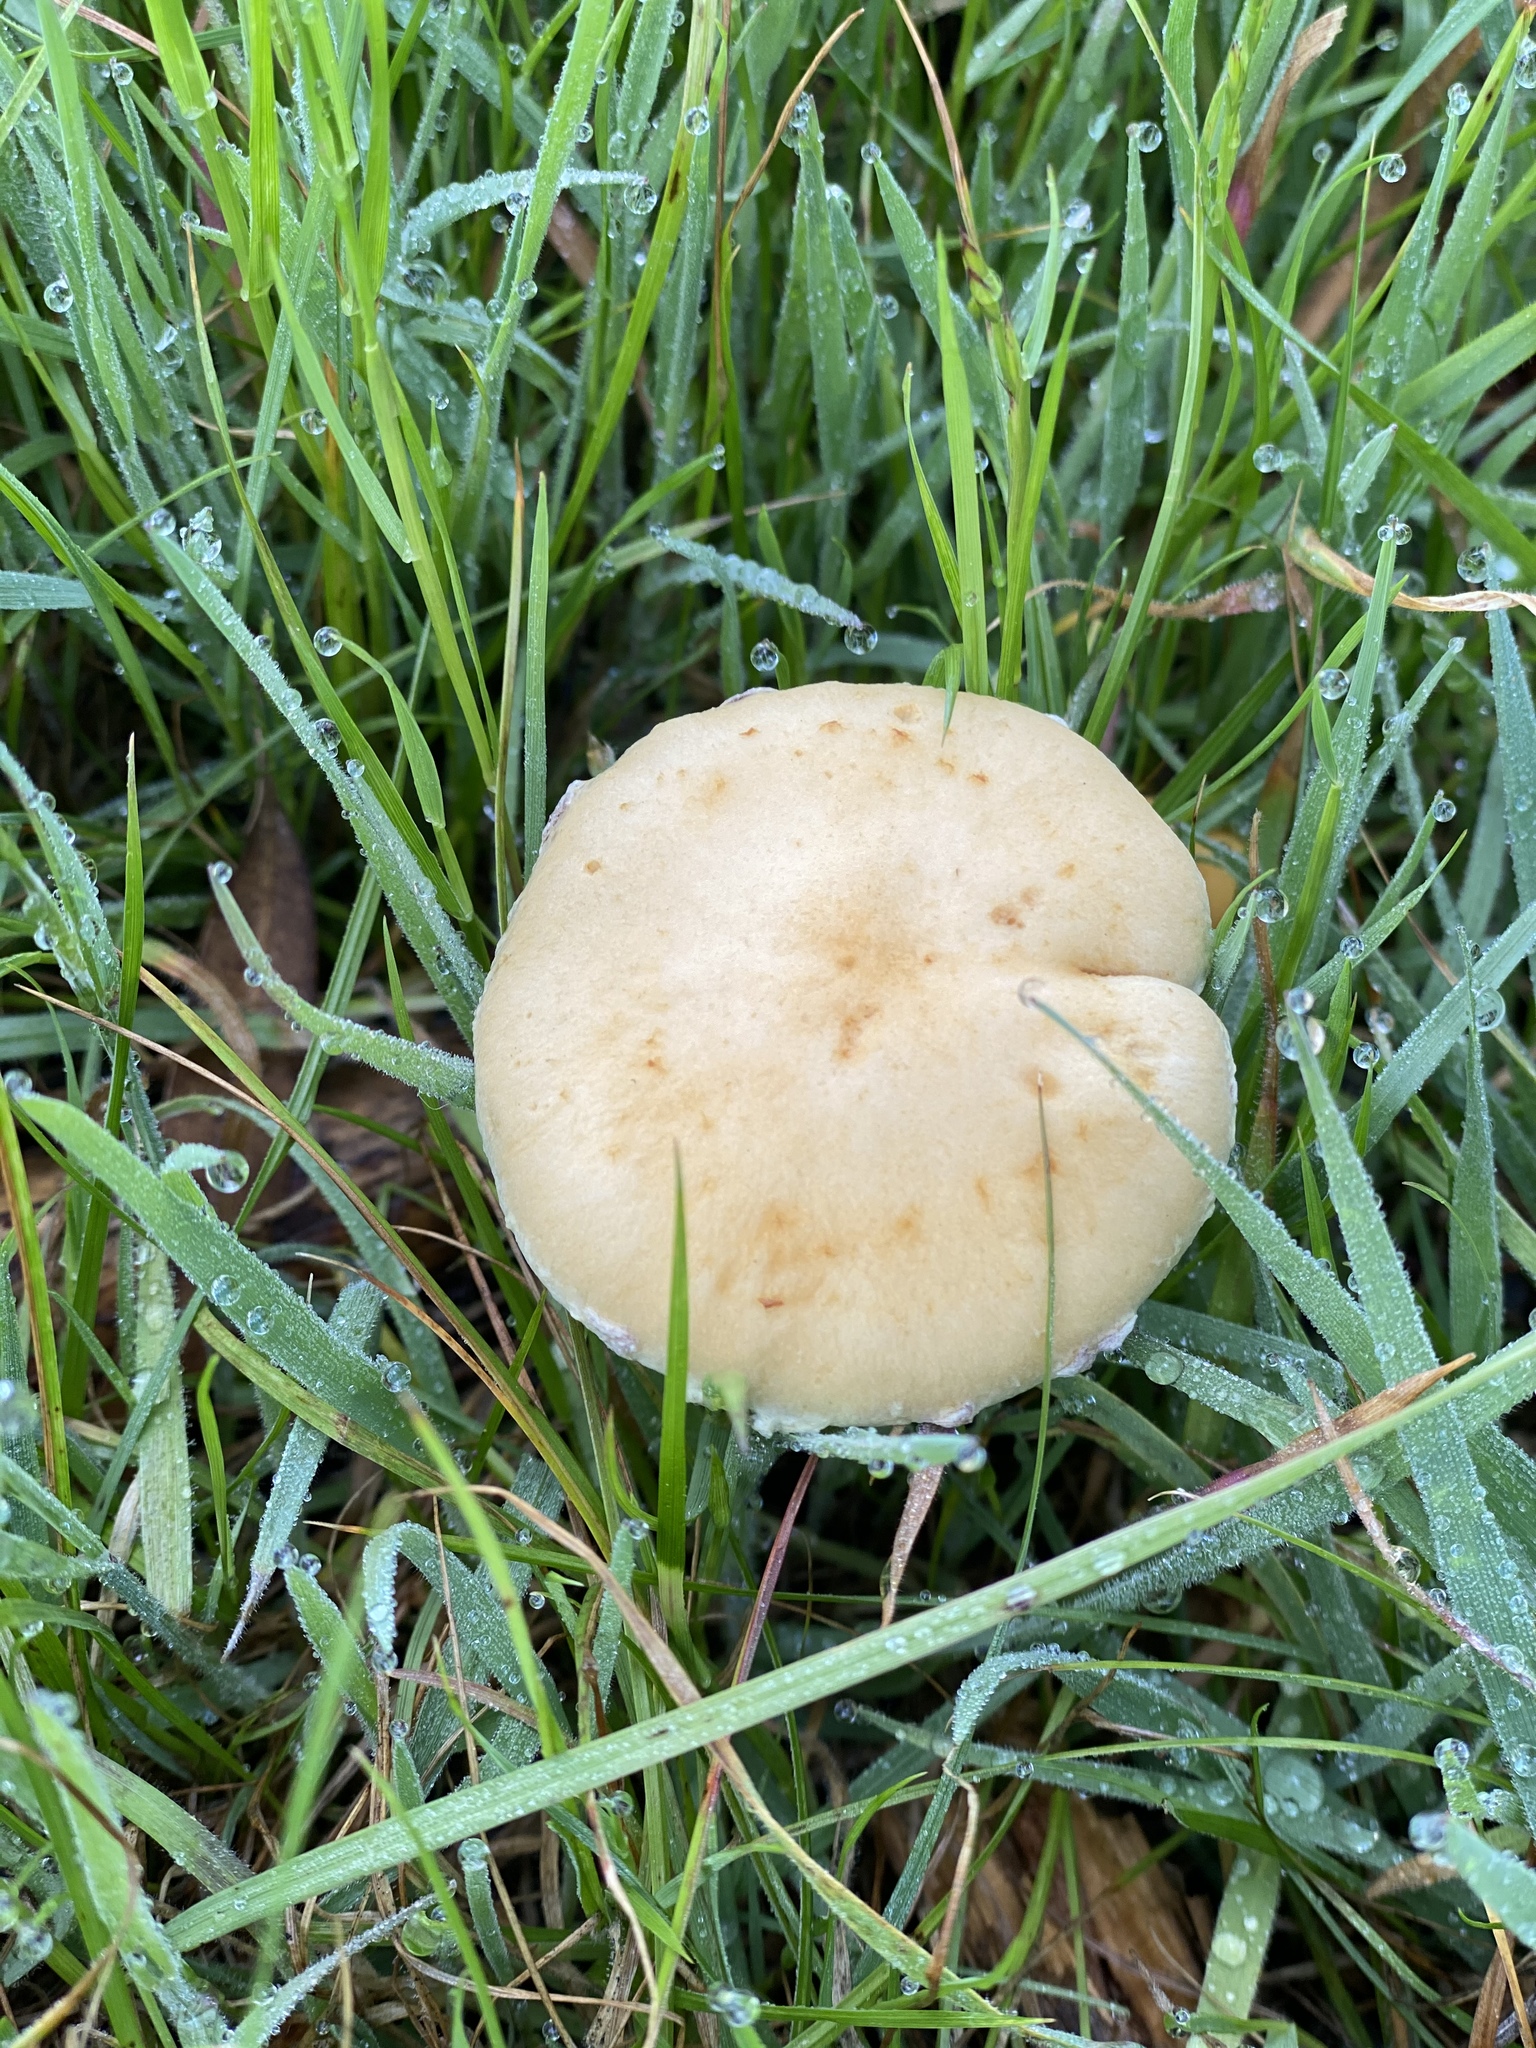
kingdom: Fungi
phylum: Basidiomycota
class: Agaricomycetes
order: Agaricales
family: Strophariaceae
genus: Leratiomyces
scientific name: Leratiomyces percevalii
